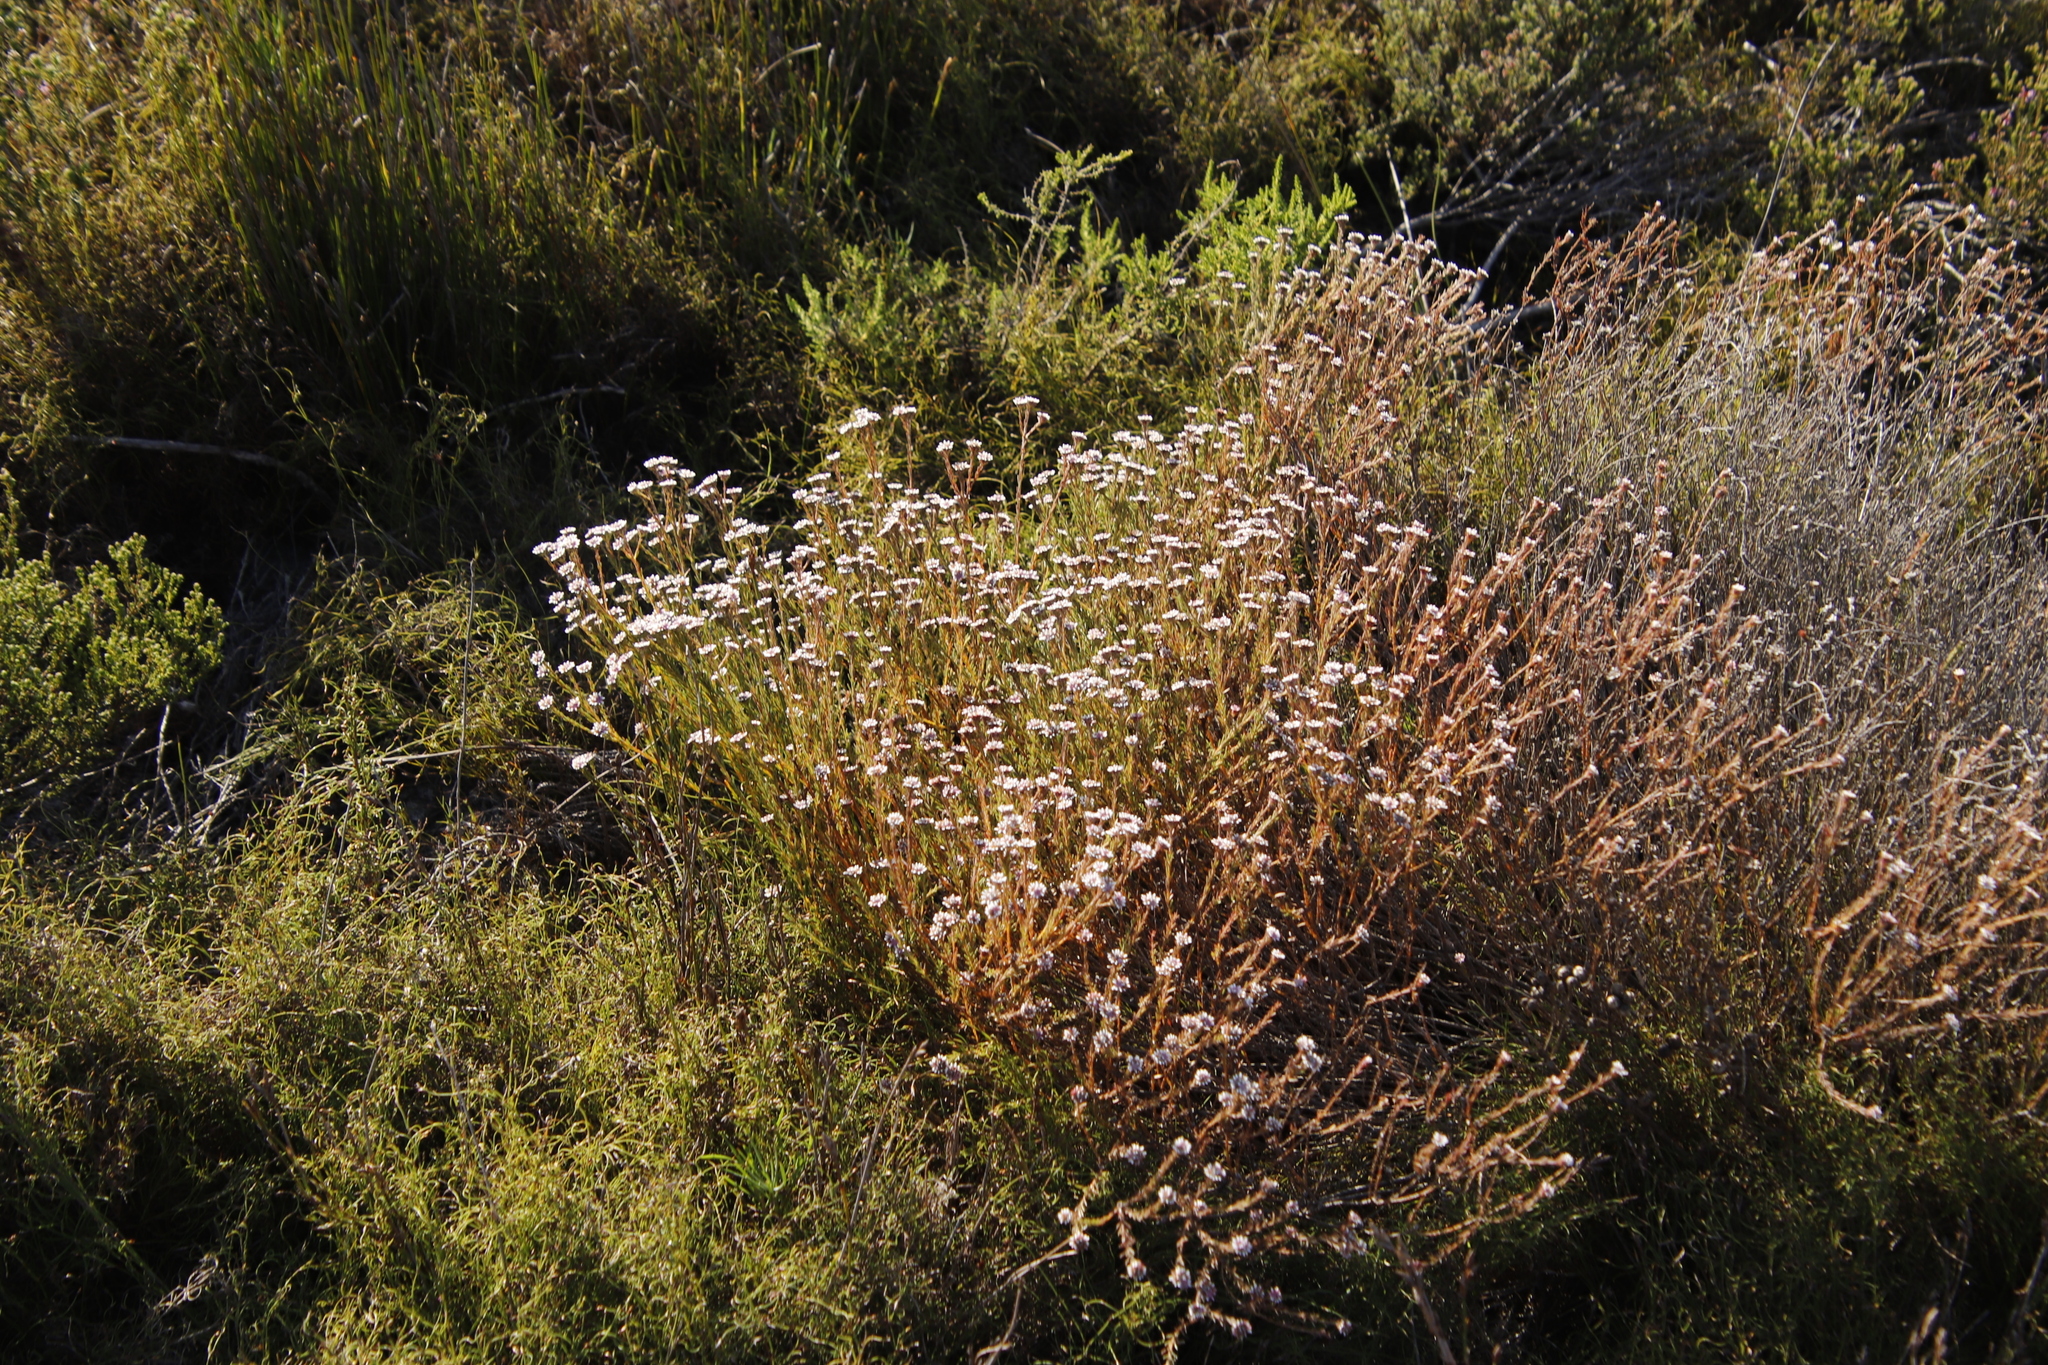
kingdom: Plantae
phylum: Tracheophyta
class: Magnoliopsida
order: Bruniales
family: Bruniaceae
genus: Staavia
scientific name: Staavia radiata
